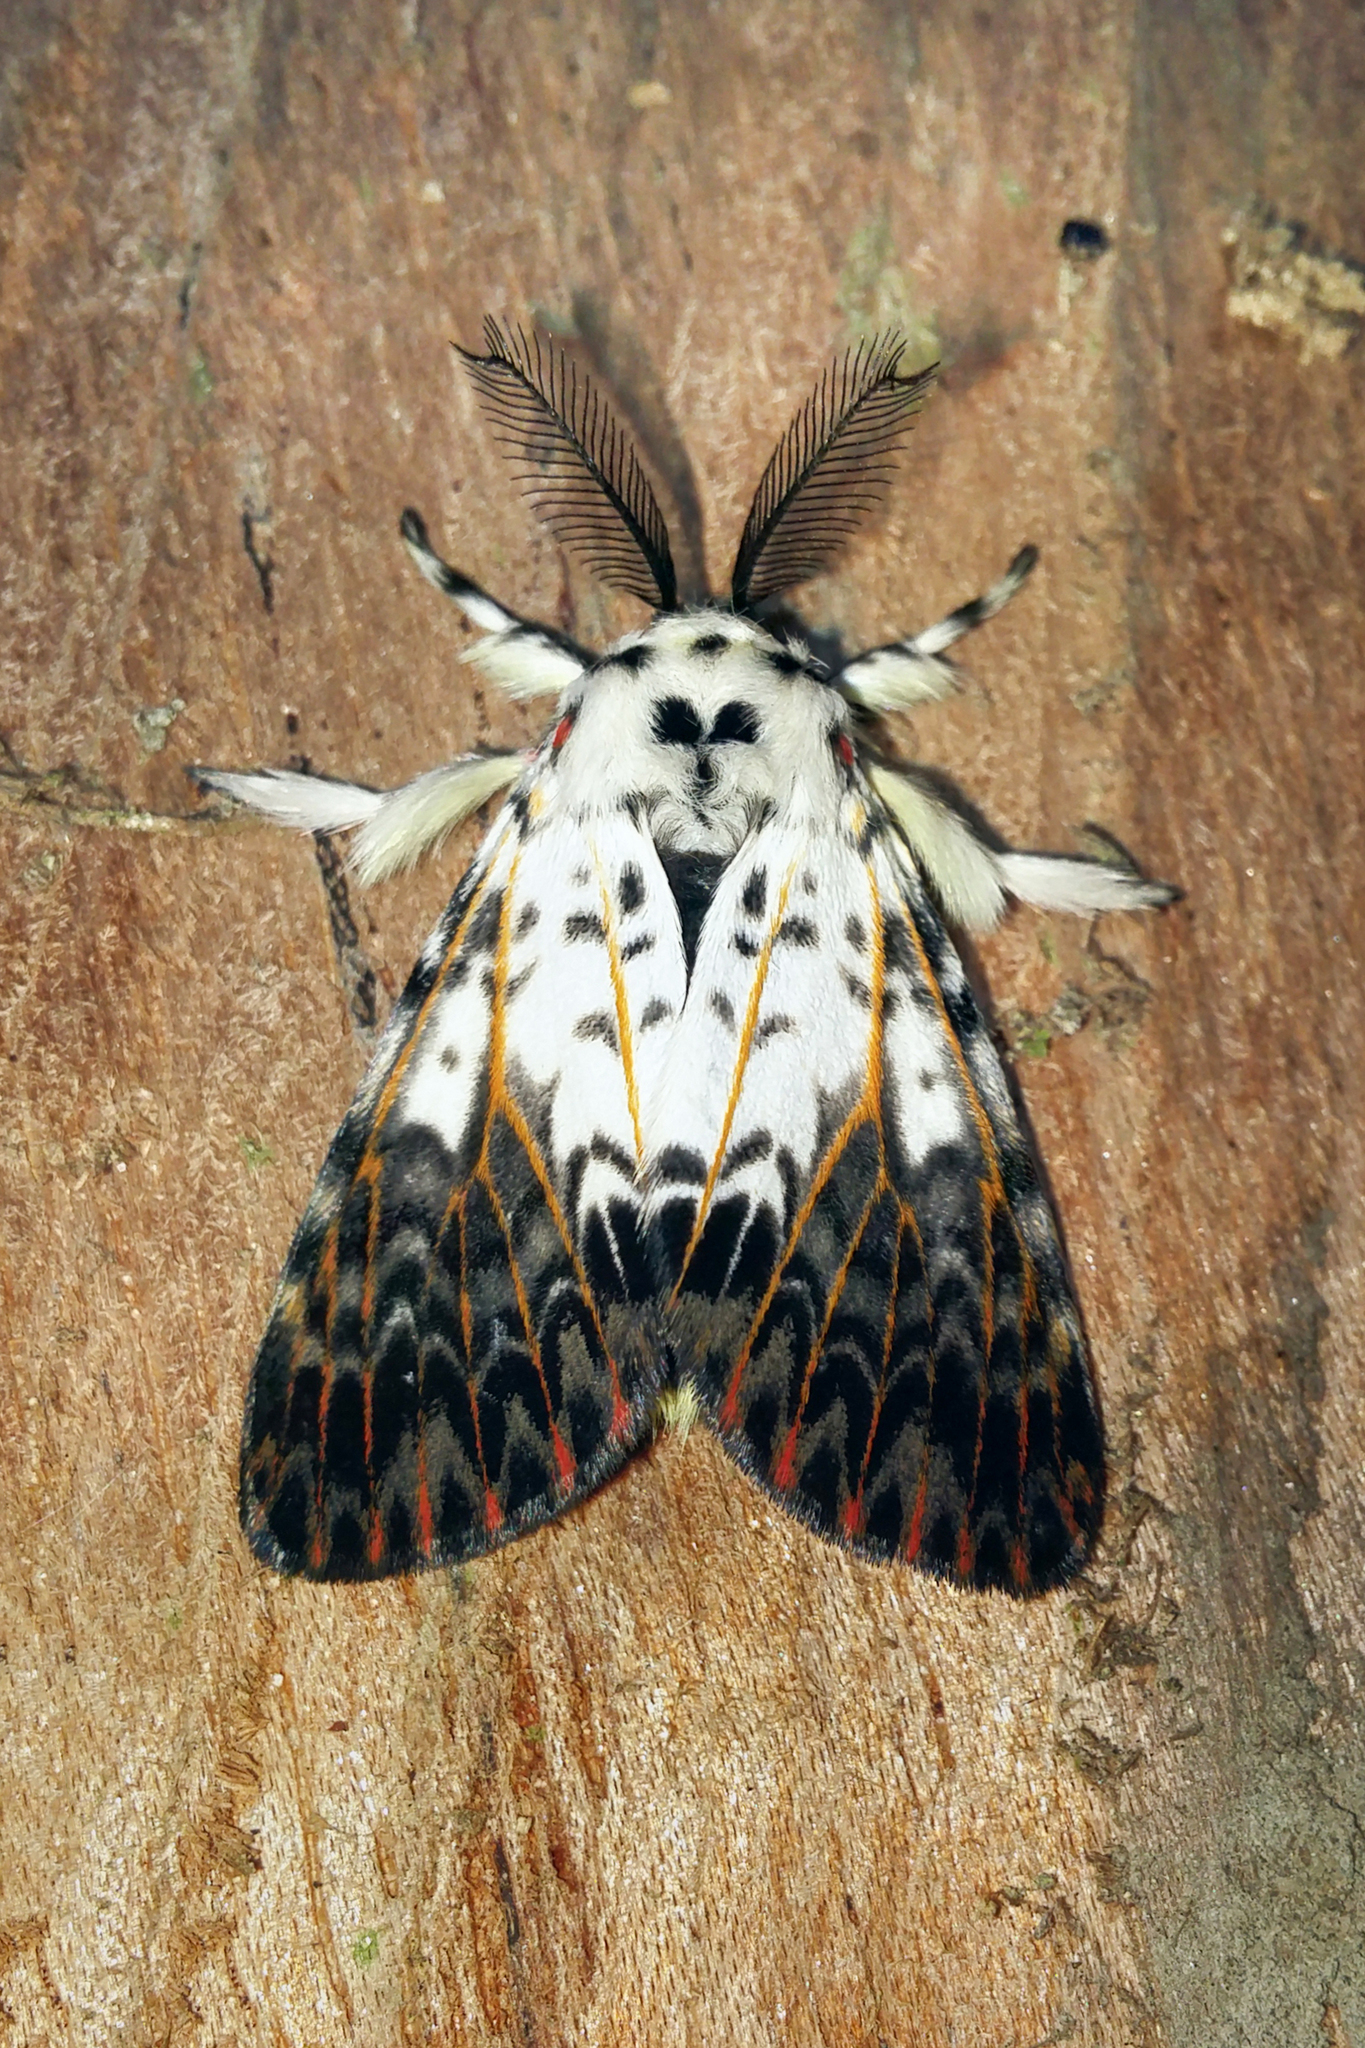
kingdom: Animalia
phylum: Arthropoda
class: Insecta
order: Lepidoptera
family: Erebidae
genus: Lymantria
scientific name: Lymantria ninayi
